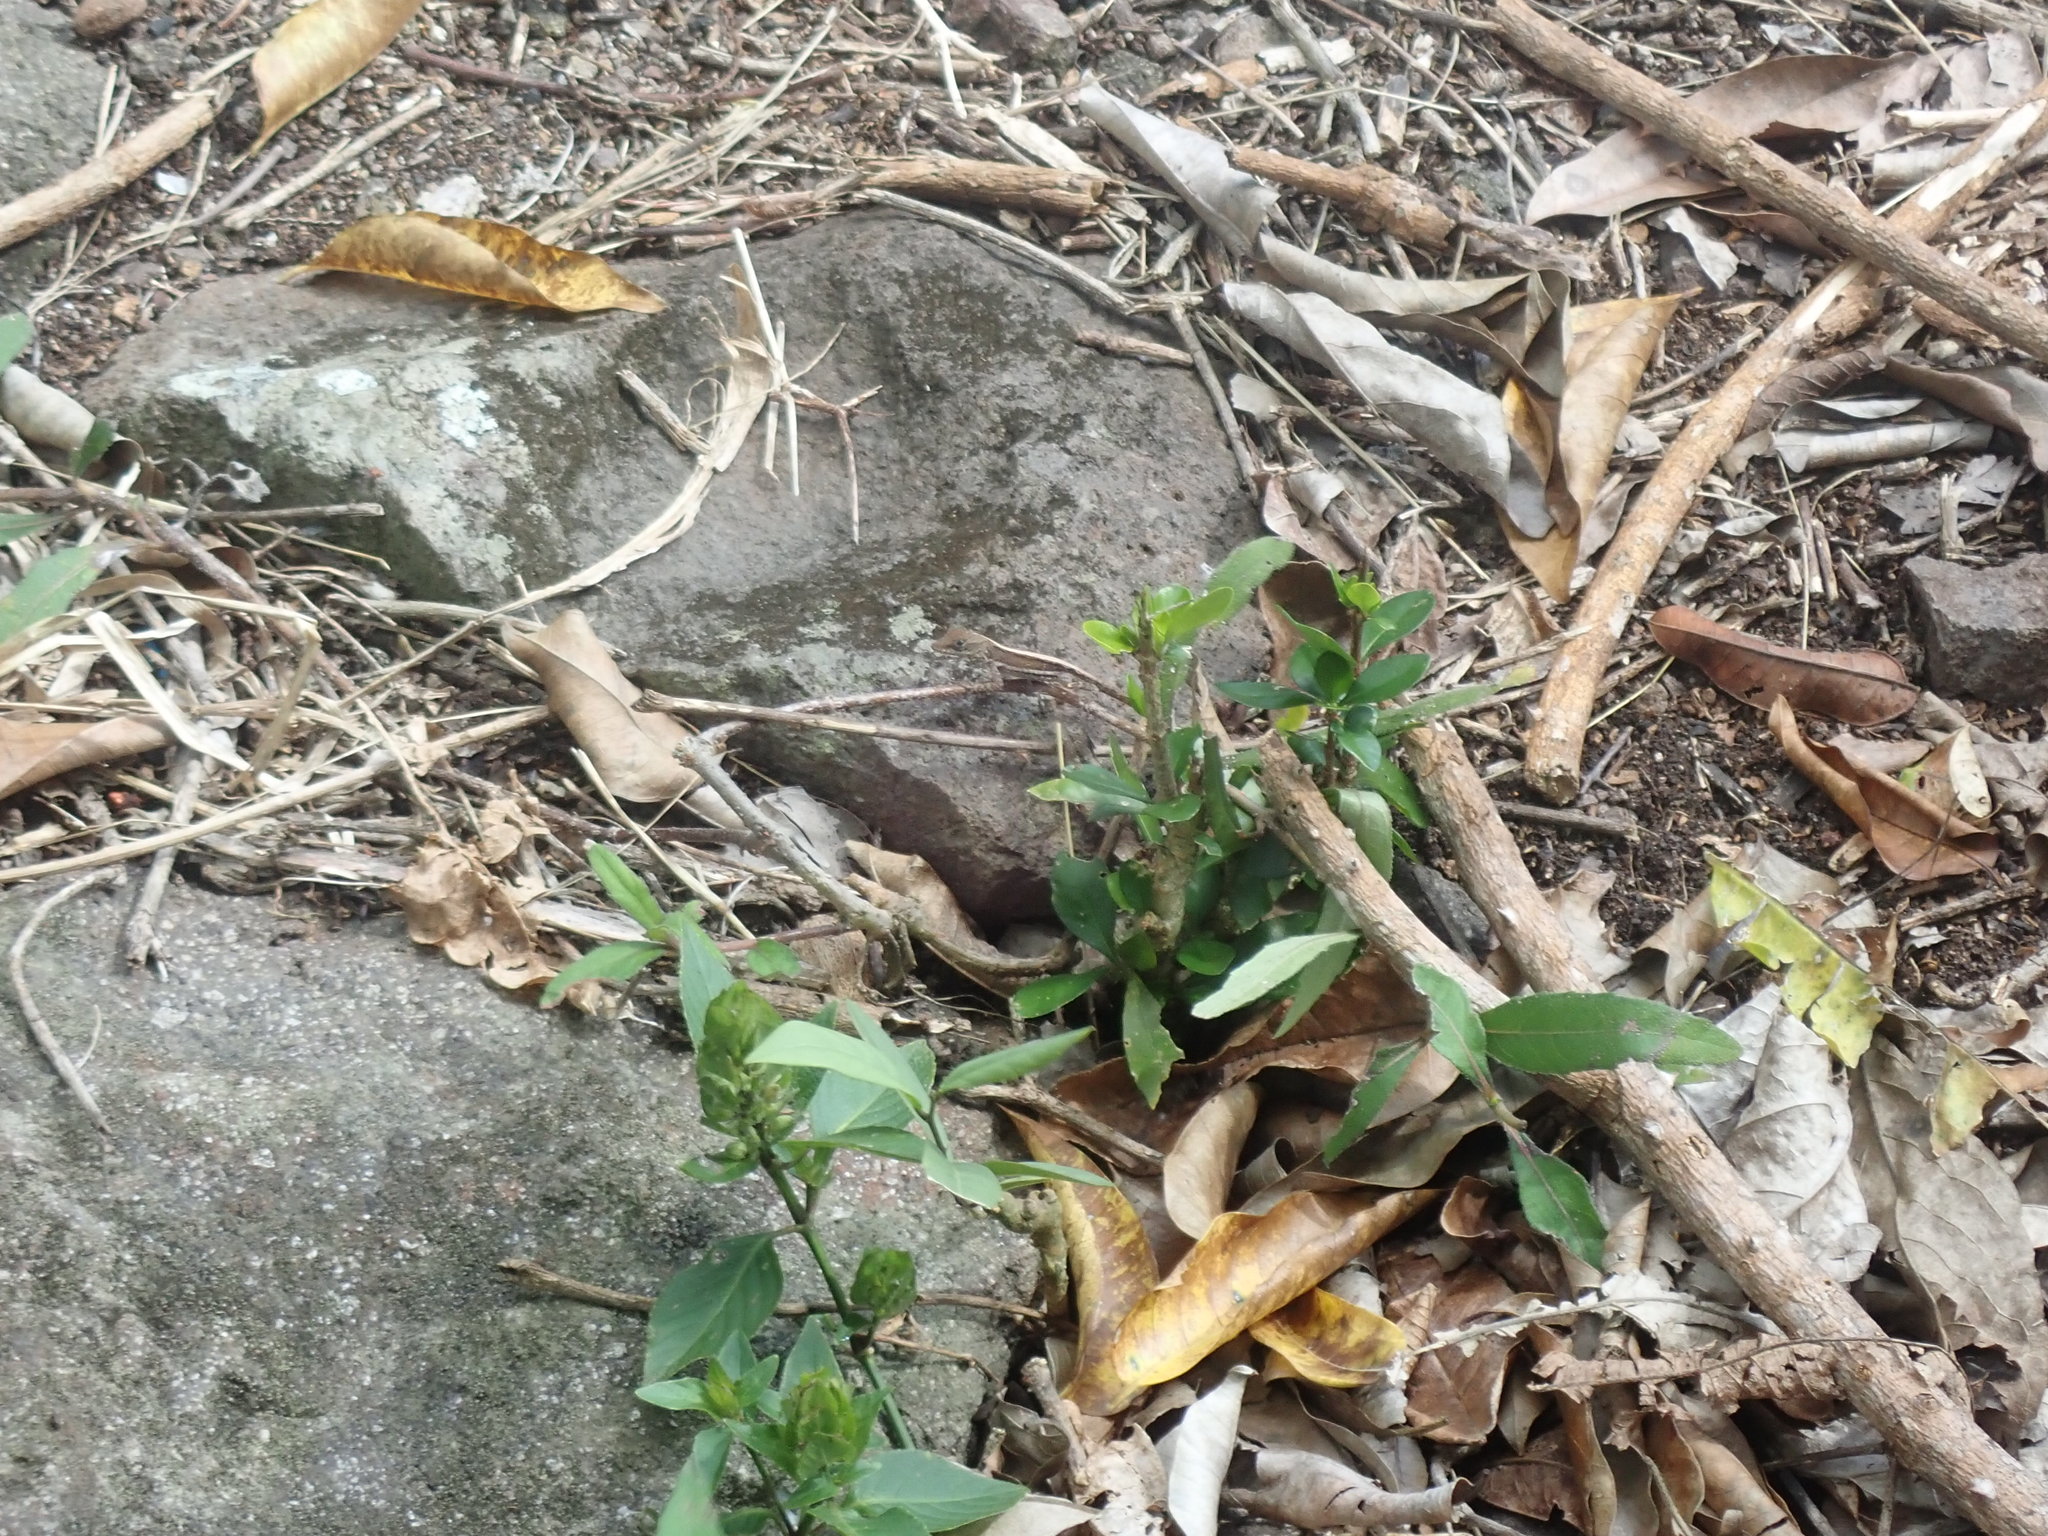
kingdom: Animalia
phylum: Chordata
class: Squamata
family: Dactyloidae
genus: Anolis
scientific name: Anolis wattsii
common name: Antigua bank bush anole
